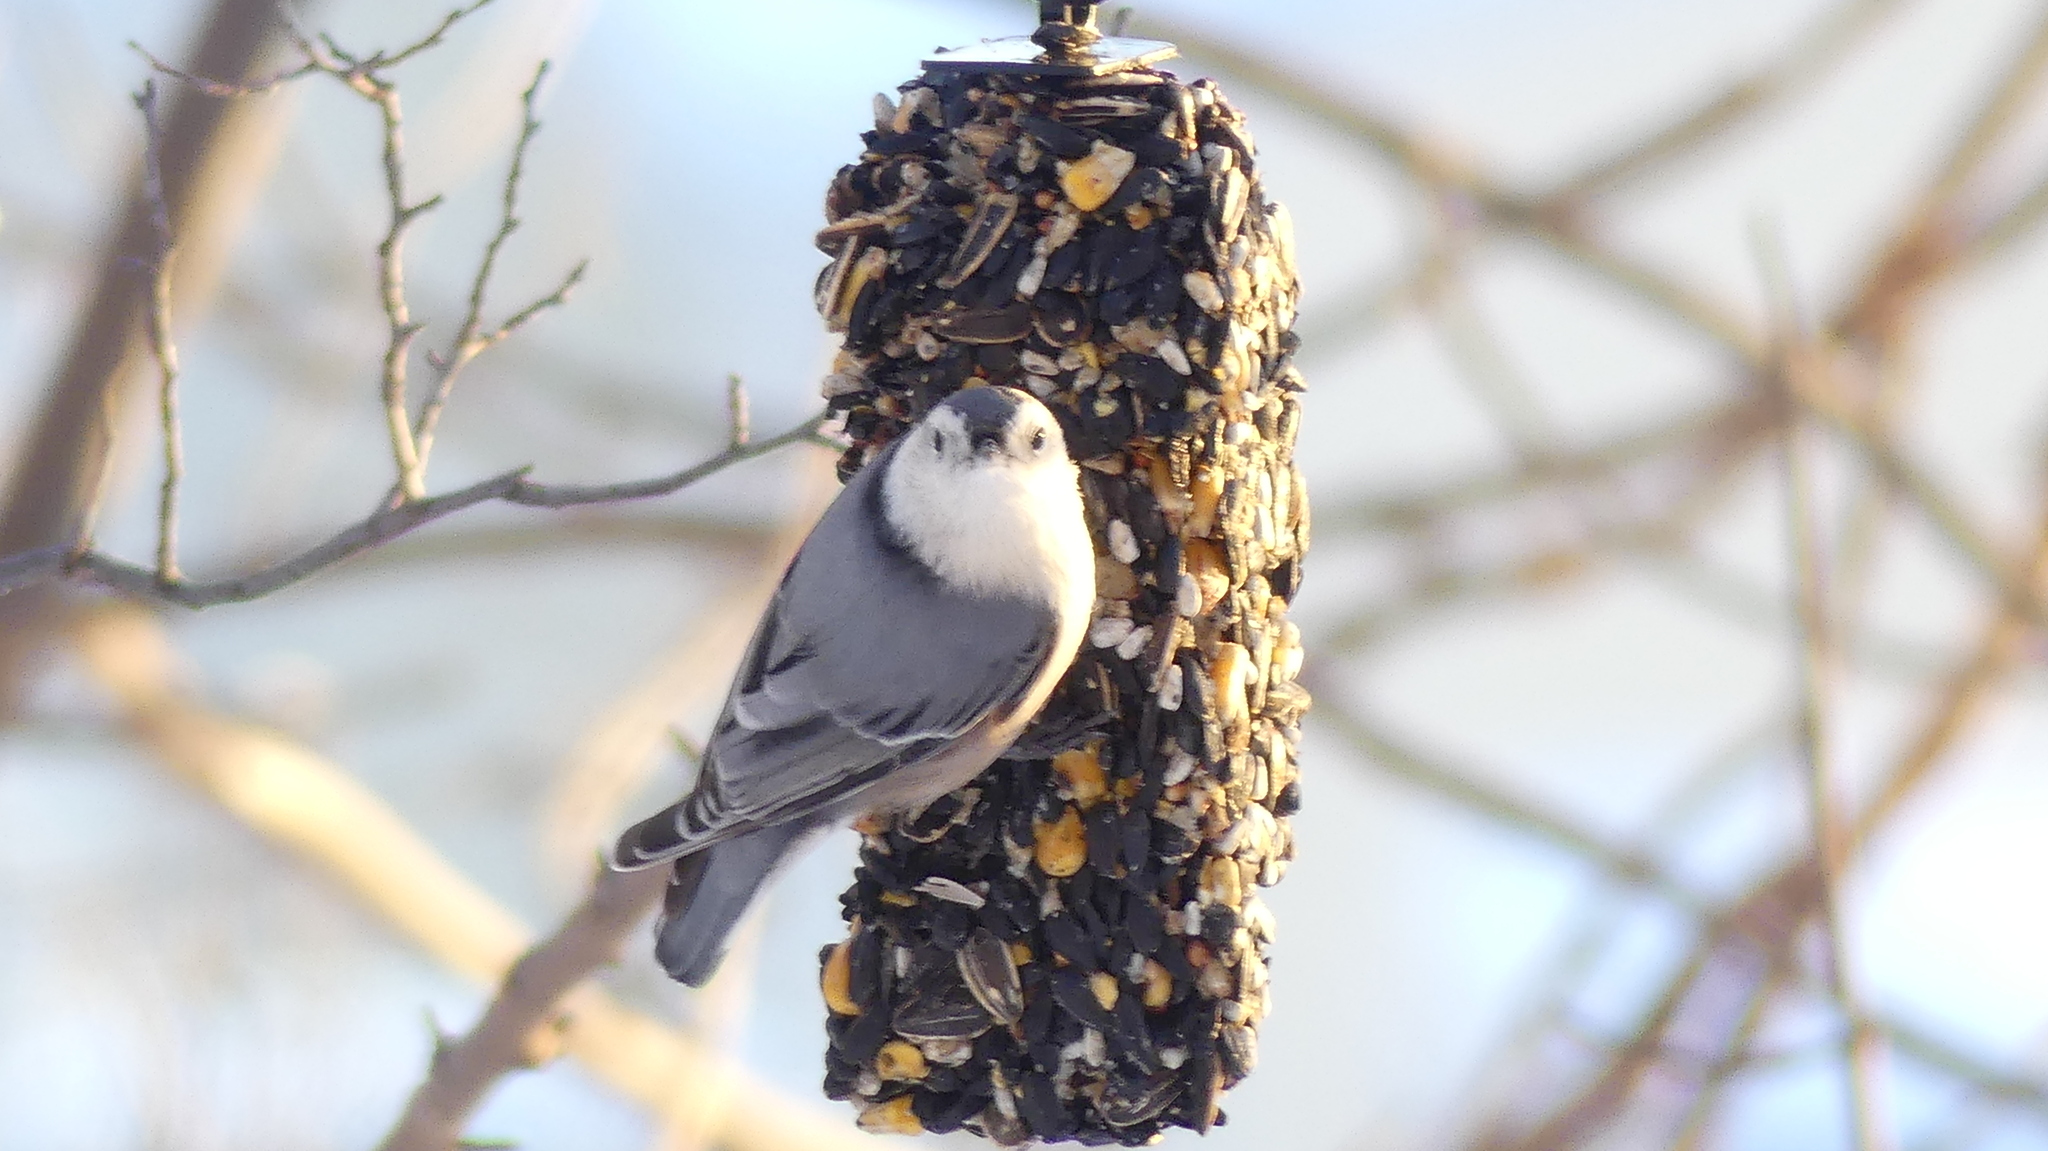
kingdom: Animalia
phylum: Chordata
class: Aves
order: Passeriformes
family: Sittidae
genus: Sitta
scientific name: Sitta carolinensis
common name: White-breasted nuthatch
